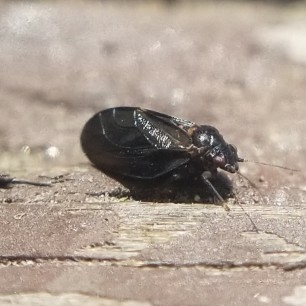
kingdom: Animalia
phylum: Arthropoda
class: Insecta
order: Hemiptera
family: Psyllidae
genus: Ceanothia
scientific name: Ceanothia bicolor
